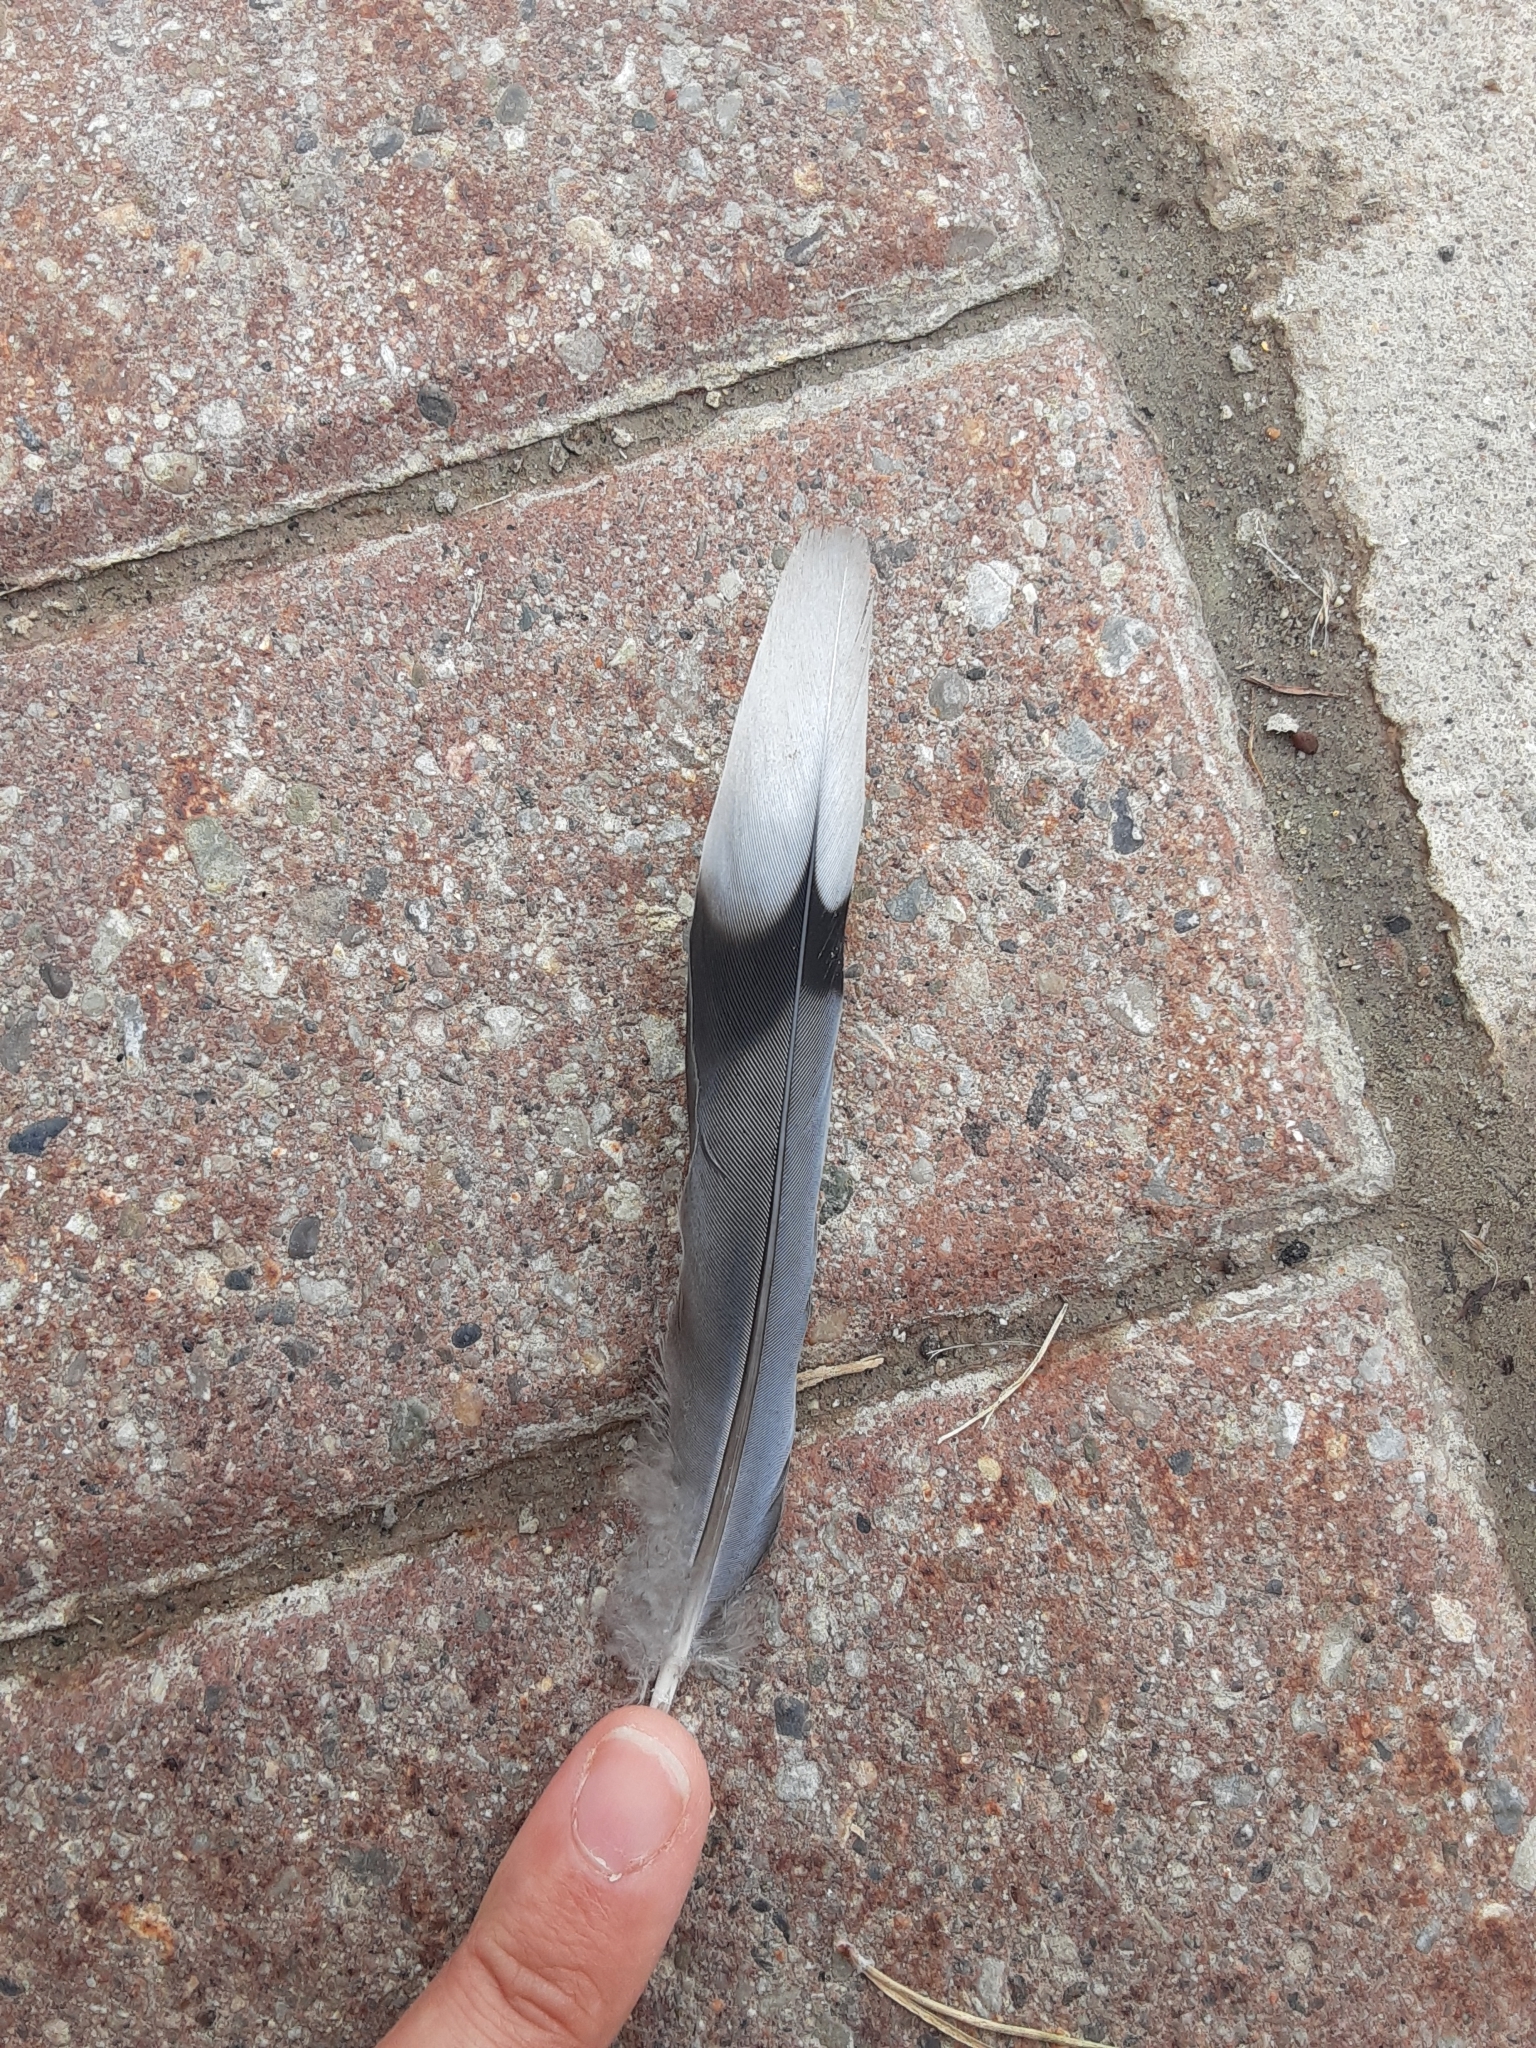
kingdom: Animalia
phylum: Chordata
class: Aves
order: Columbiformes
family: Columbidae
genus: Zenaida
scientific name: Zenaida macroura
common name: Mourning dove
